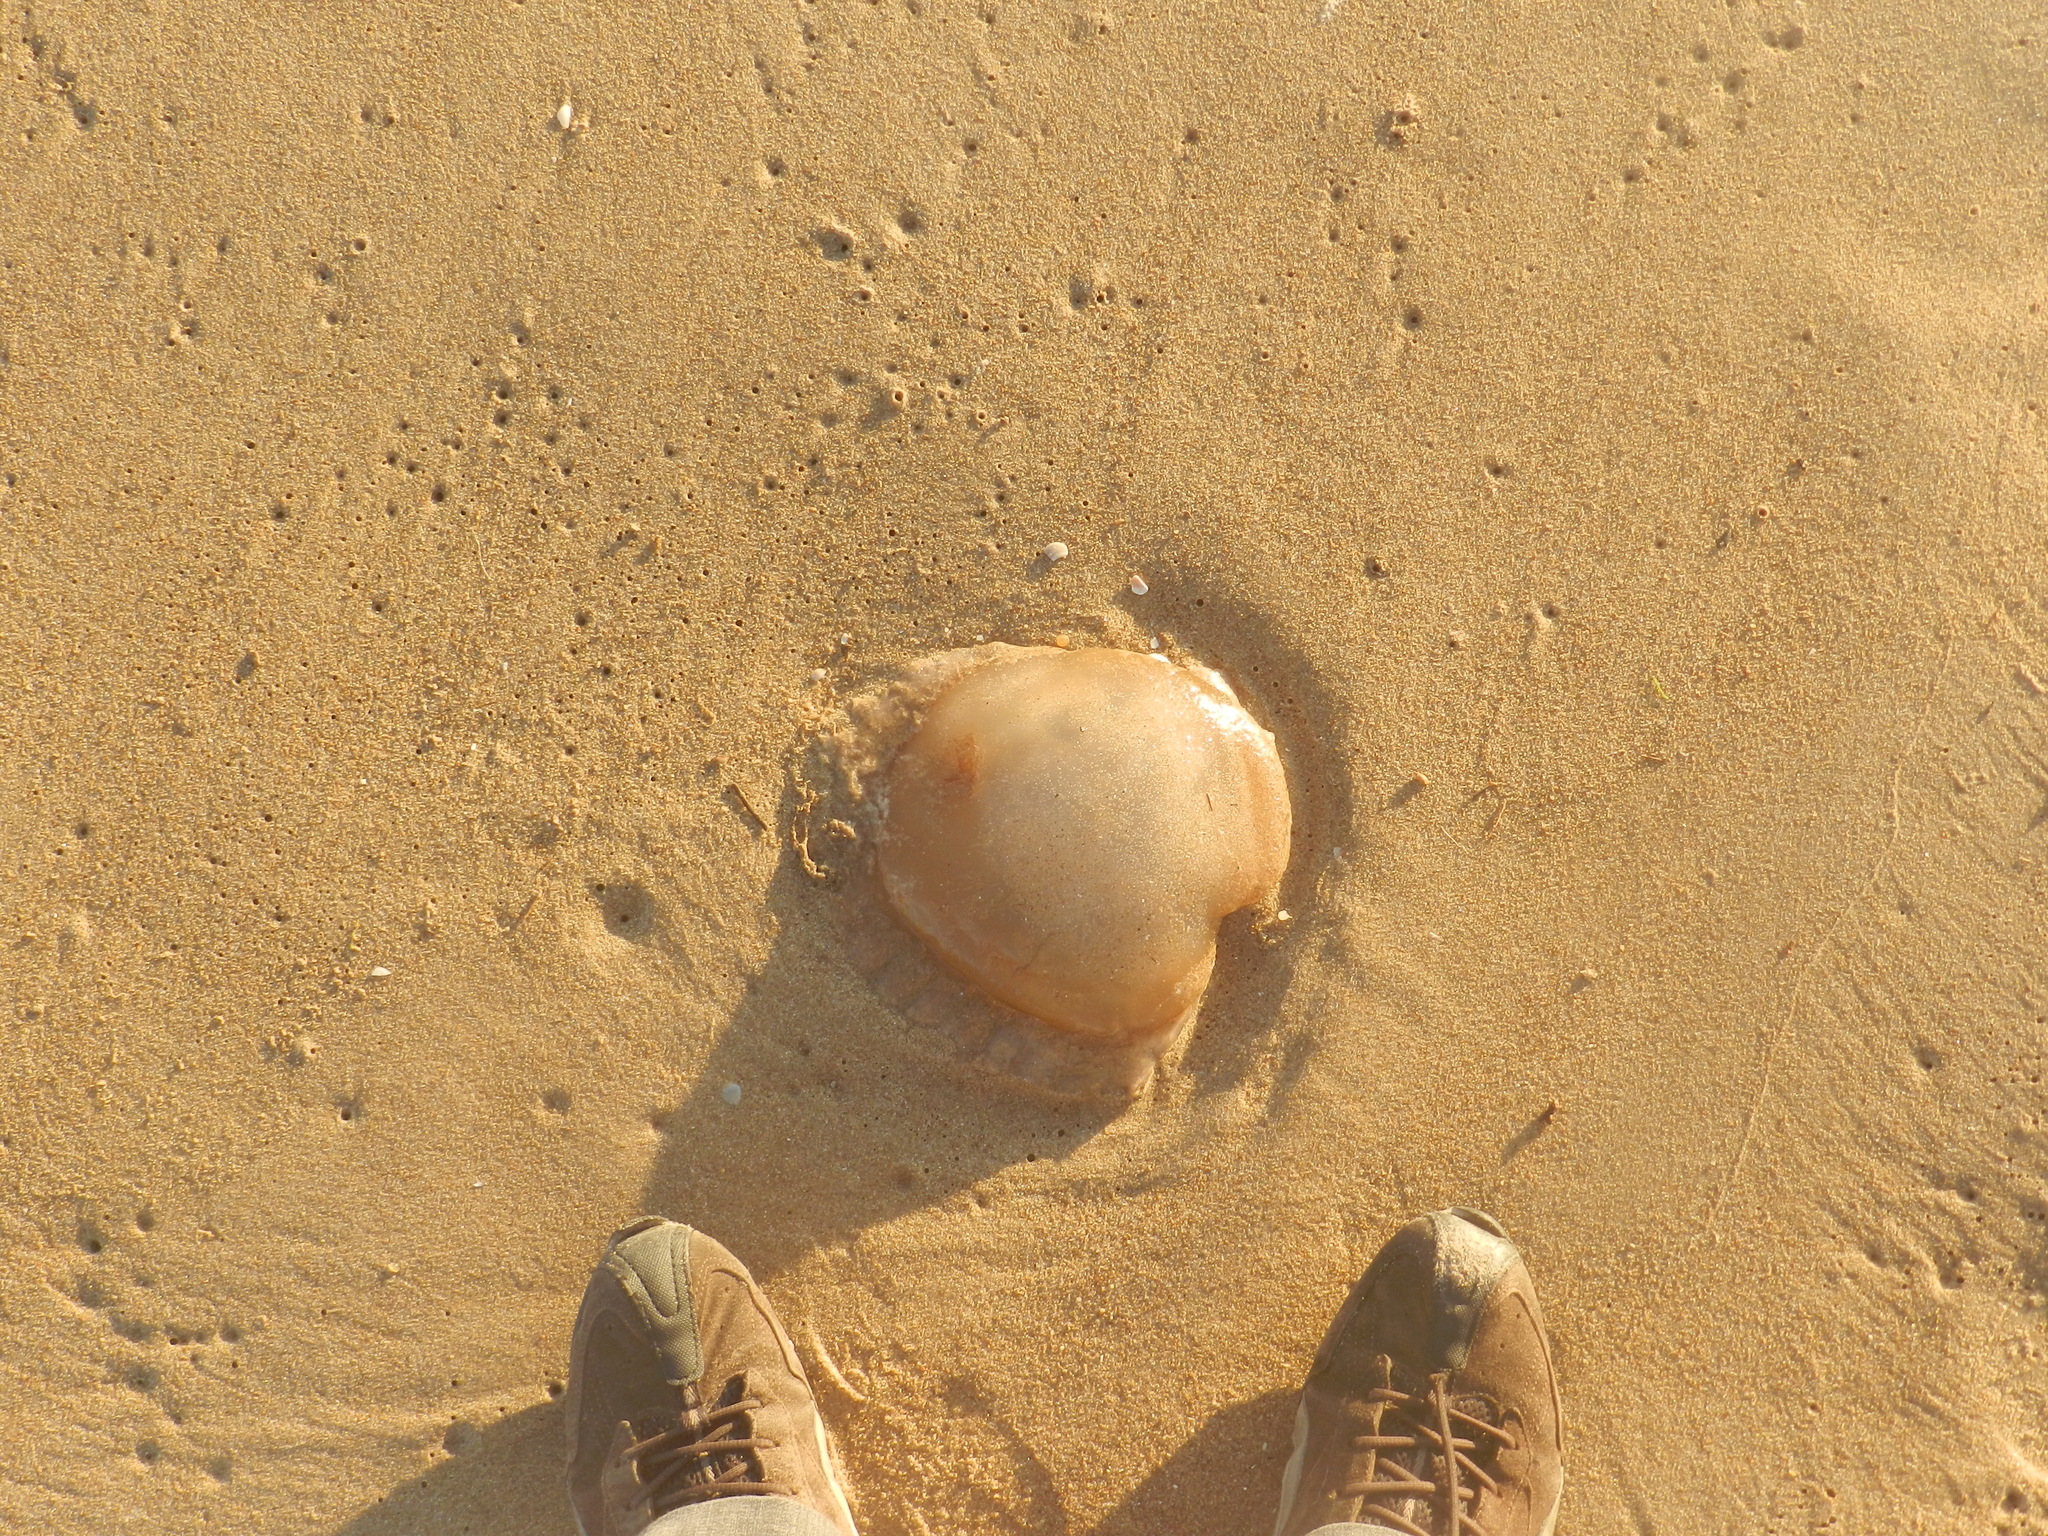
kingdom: Animalia
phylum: Cnidaria
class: Scyphozoa
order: Rhizostomeae
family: Lychnorhizidae
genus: Lychnorhiza
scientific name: Lychnorhiza lucerna
